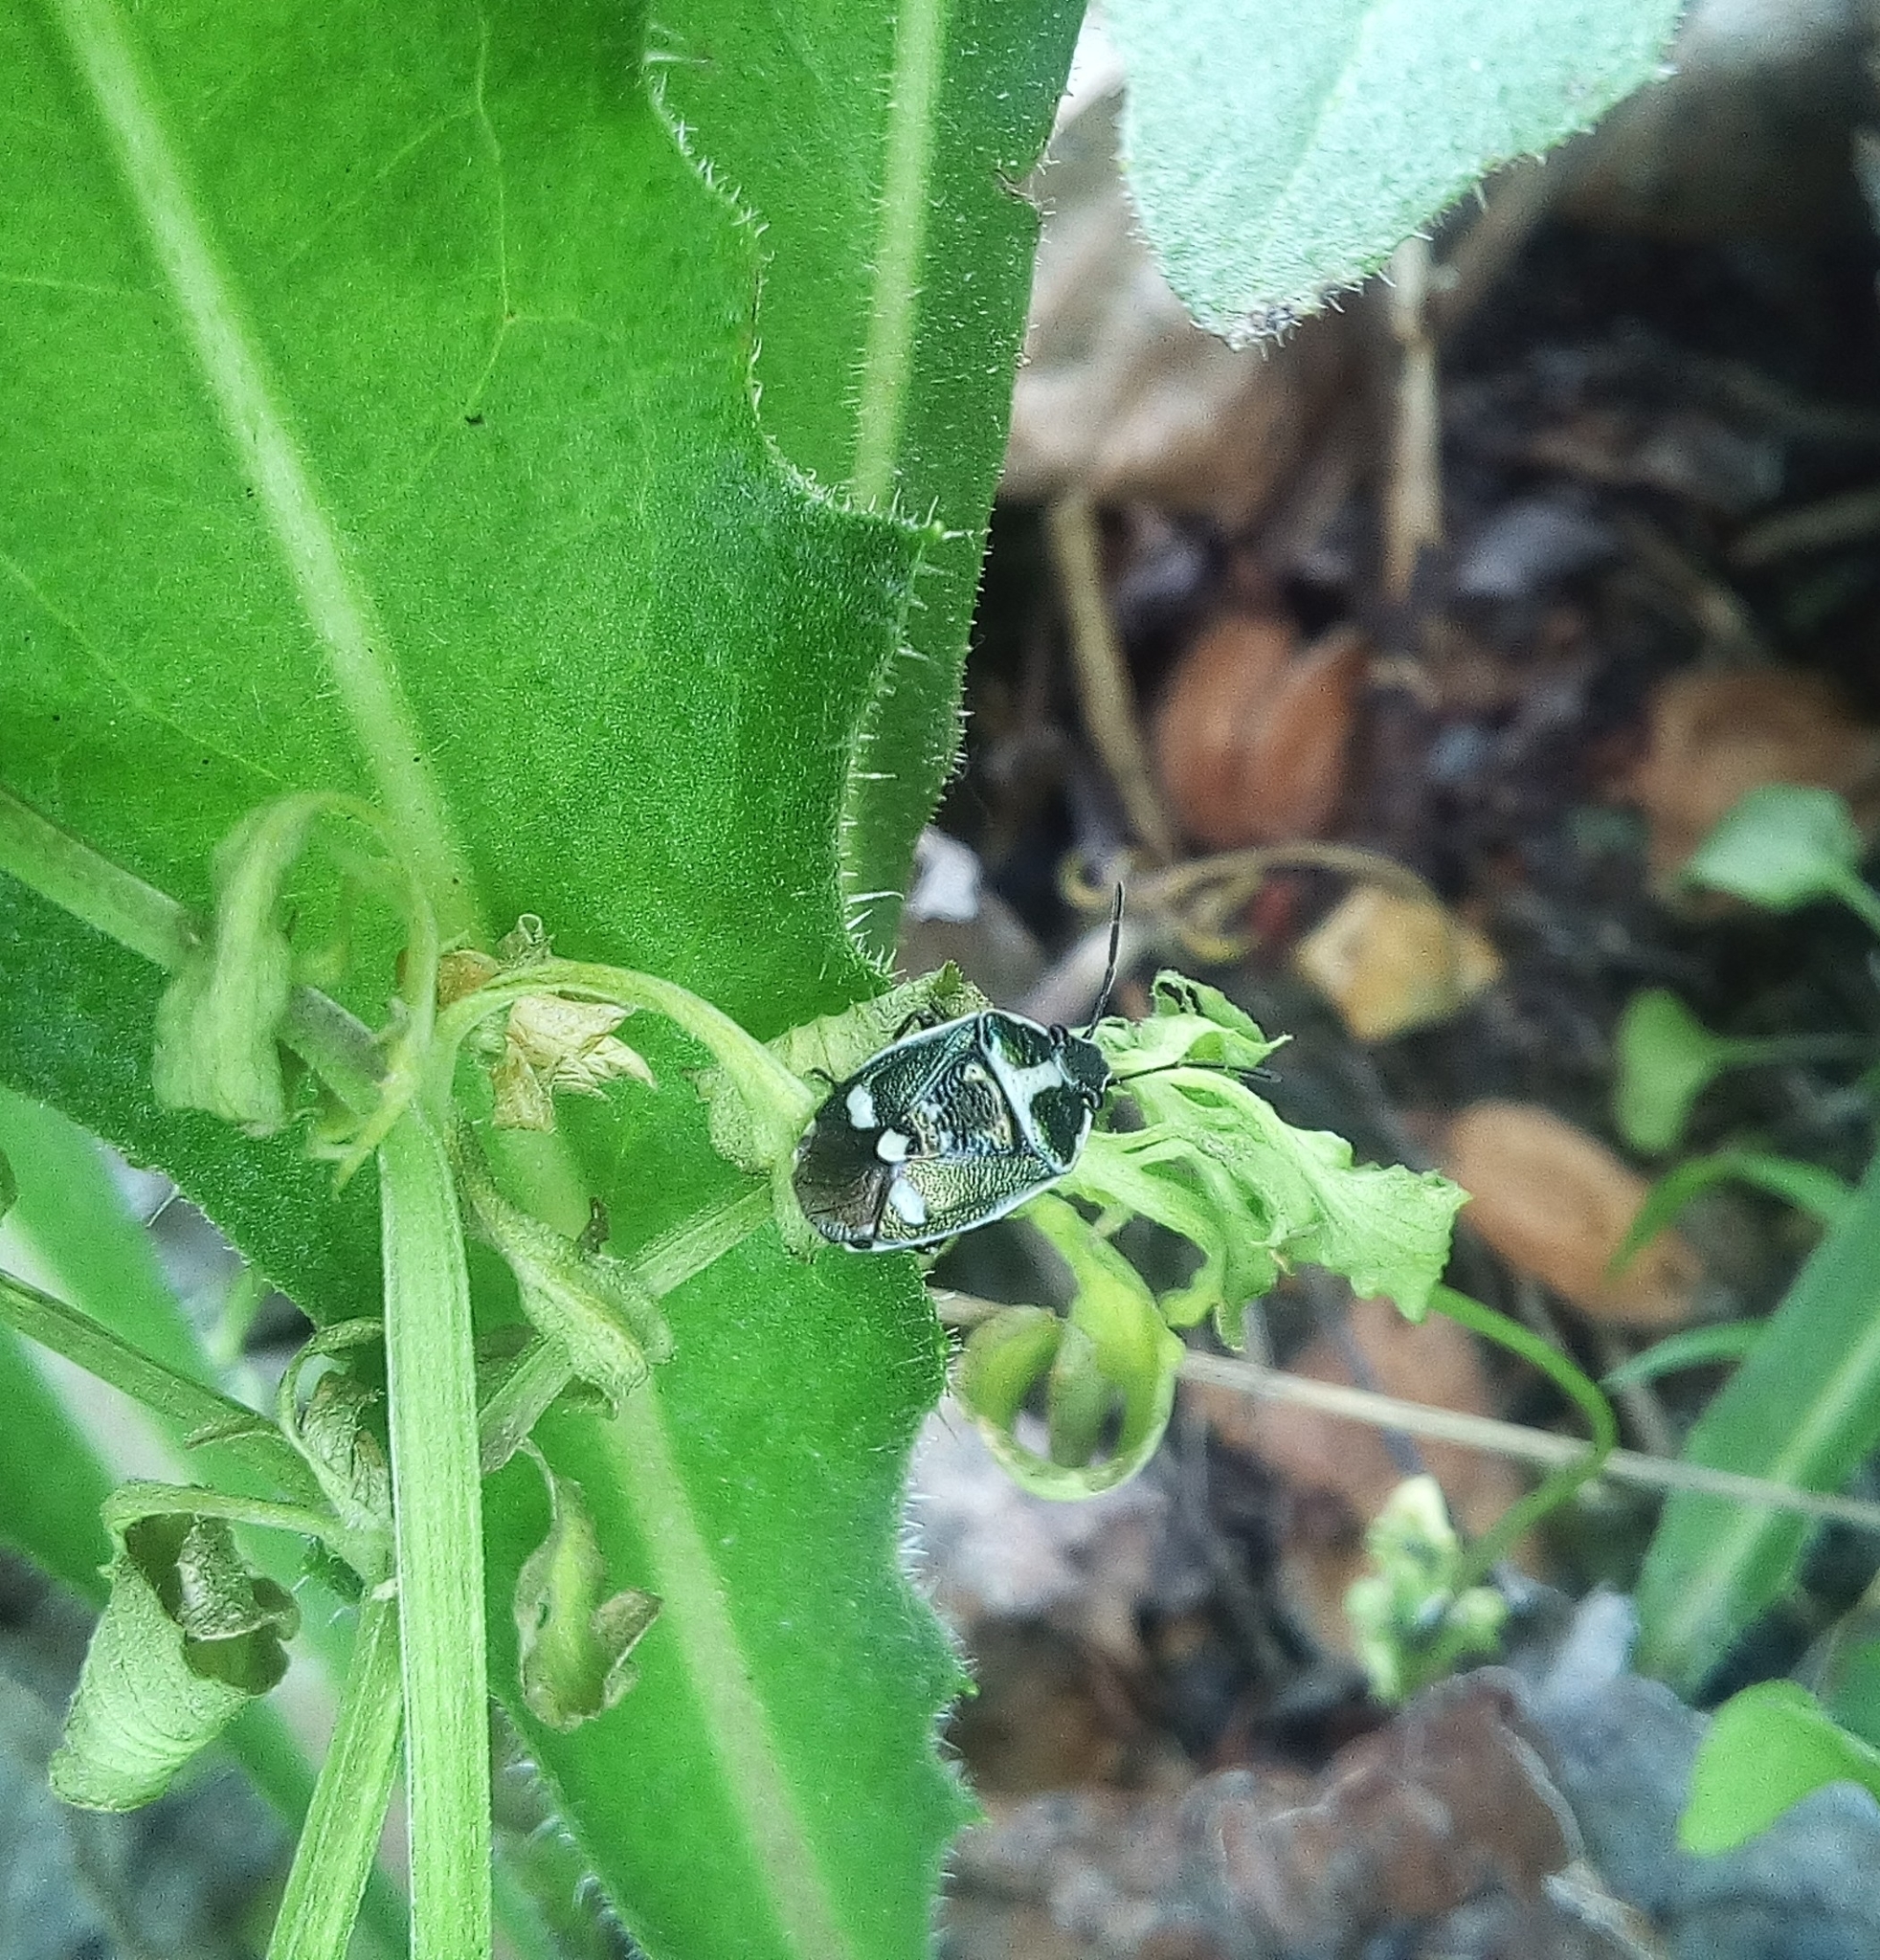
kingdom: Animalia
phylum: Arthropoda
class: Insecta
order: Hemiptera
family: Pentatomidae
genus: Eurydema
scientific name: Eurydema oleracea
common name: Cabbage bug
